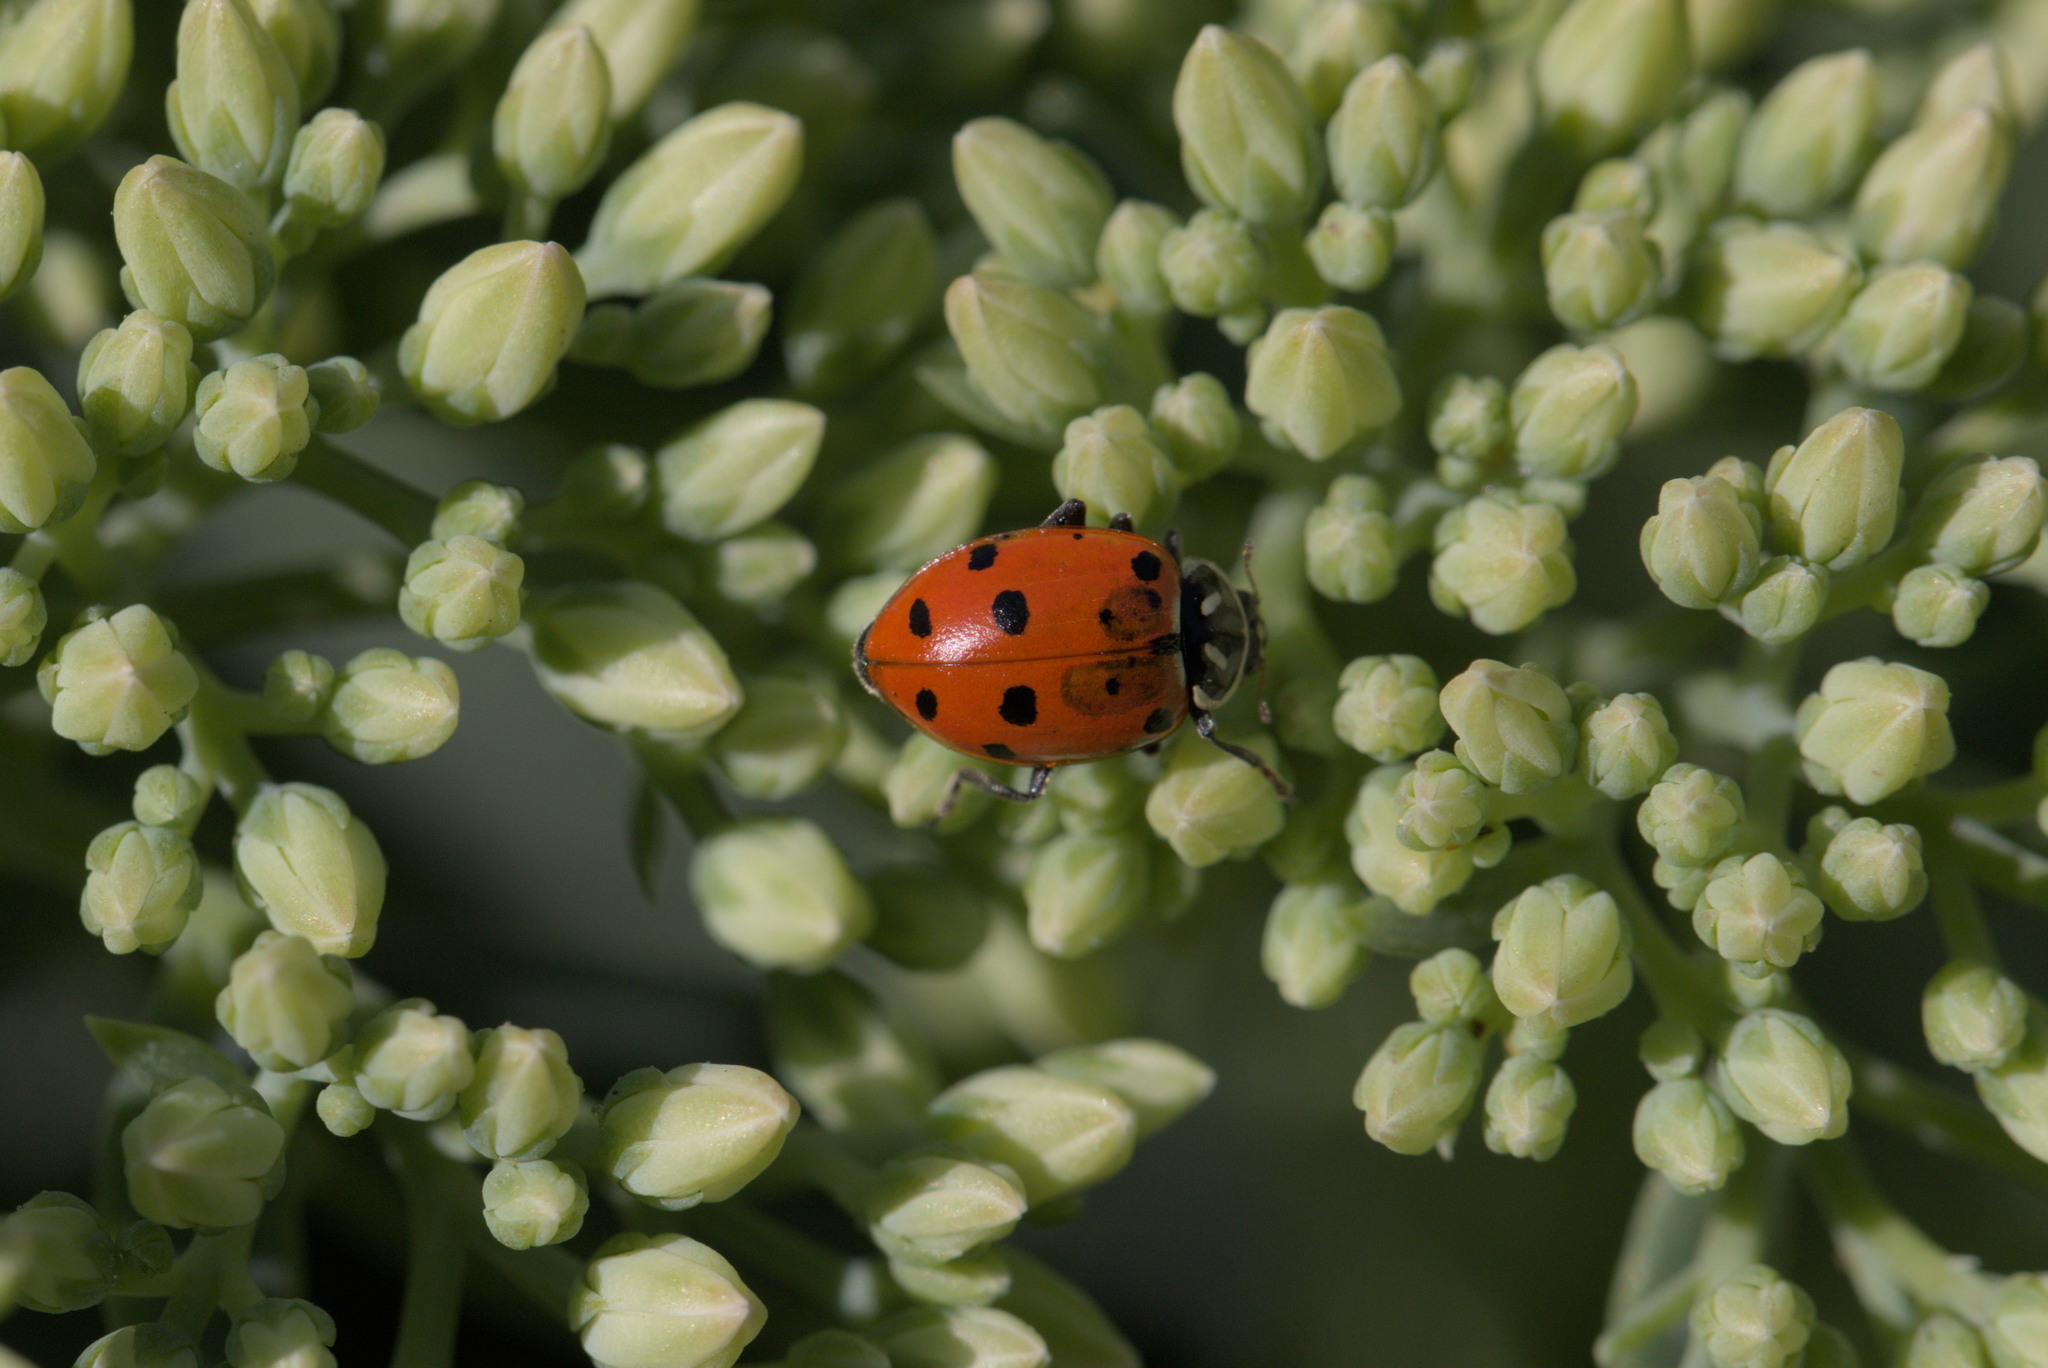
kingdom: Animalia
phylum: Arthropoda
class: Insecta
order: Coleoptera
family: Coccinellidae
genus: Hippodamia
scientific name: Hippodamia convergens
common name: Convergent lady beetle
